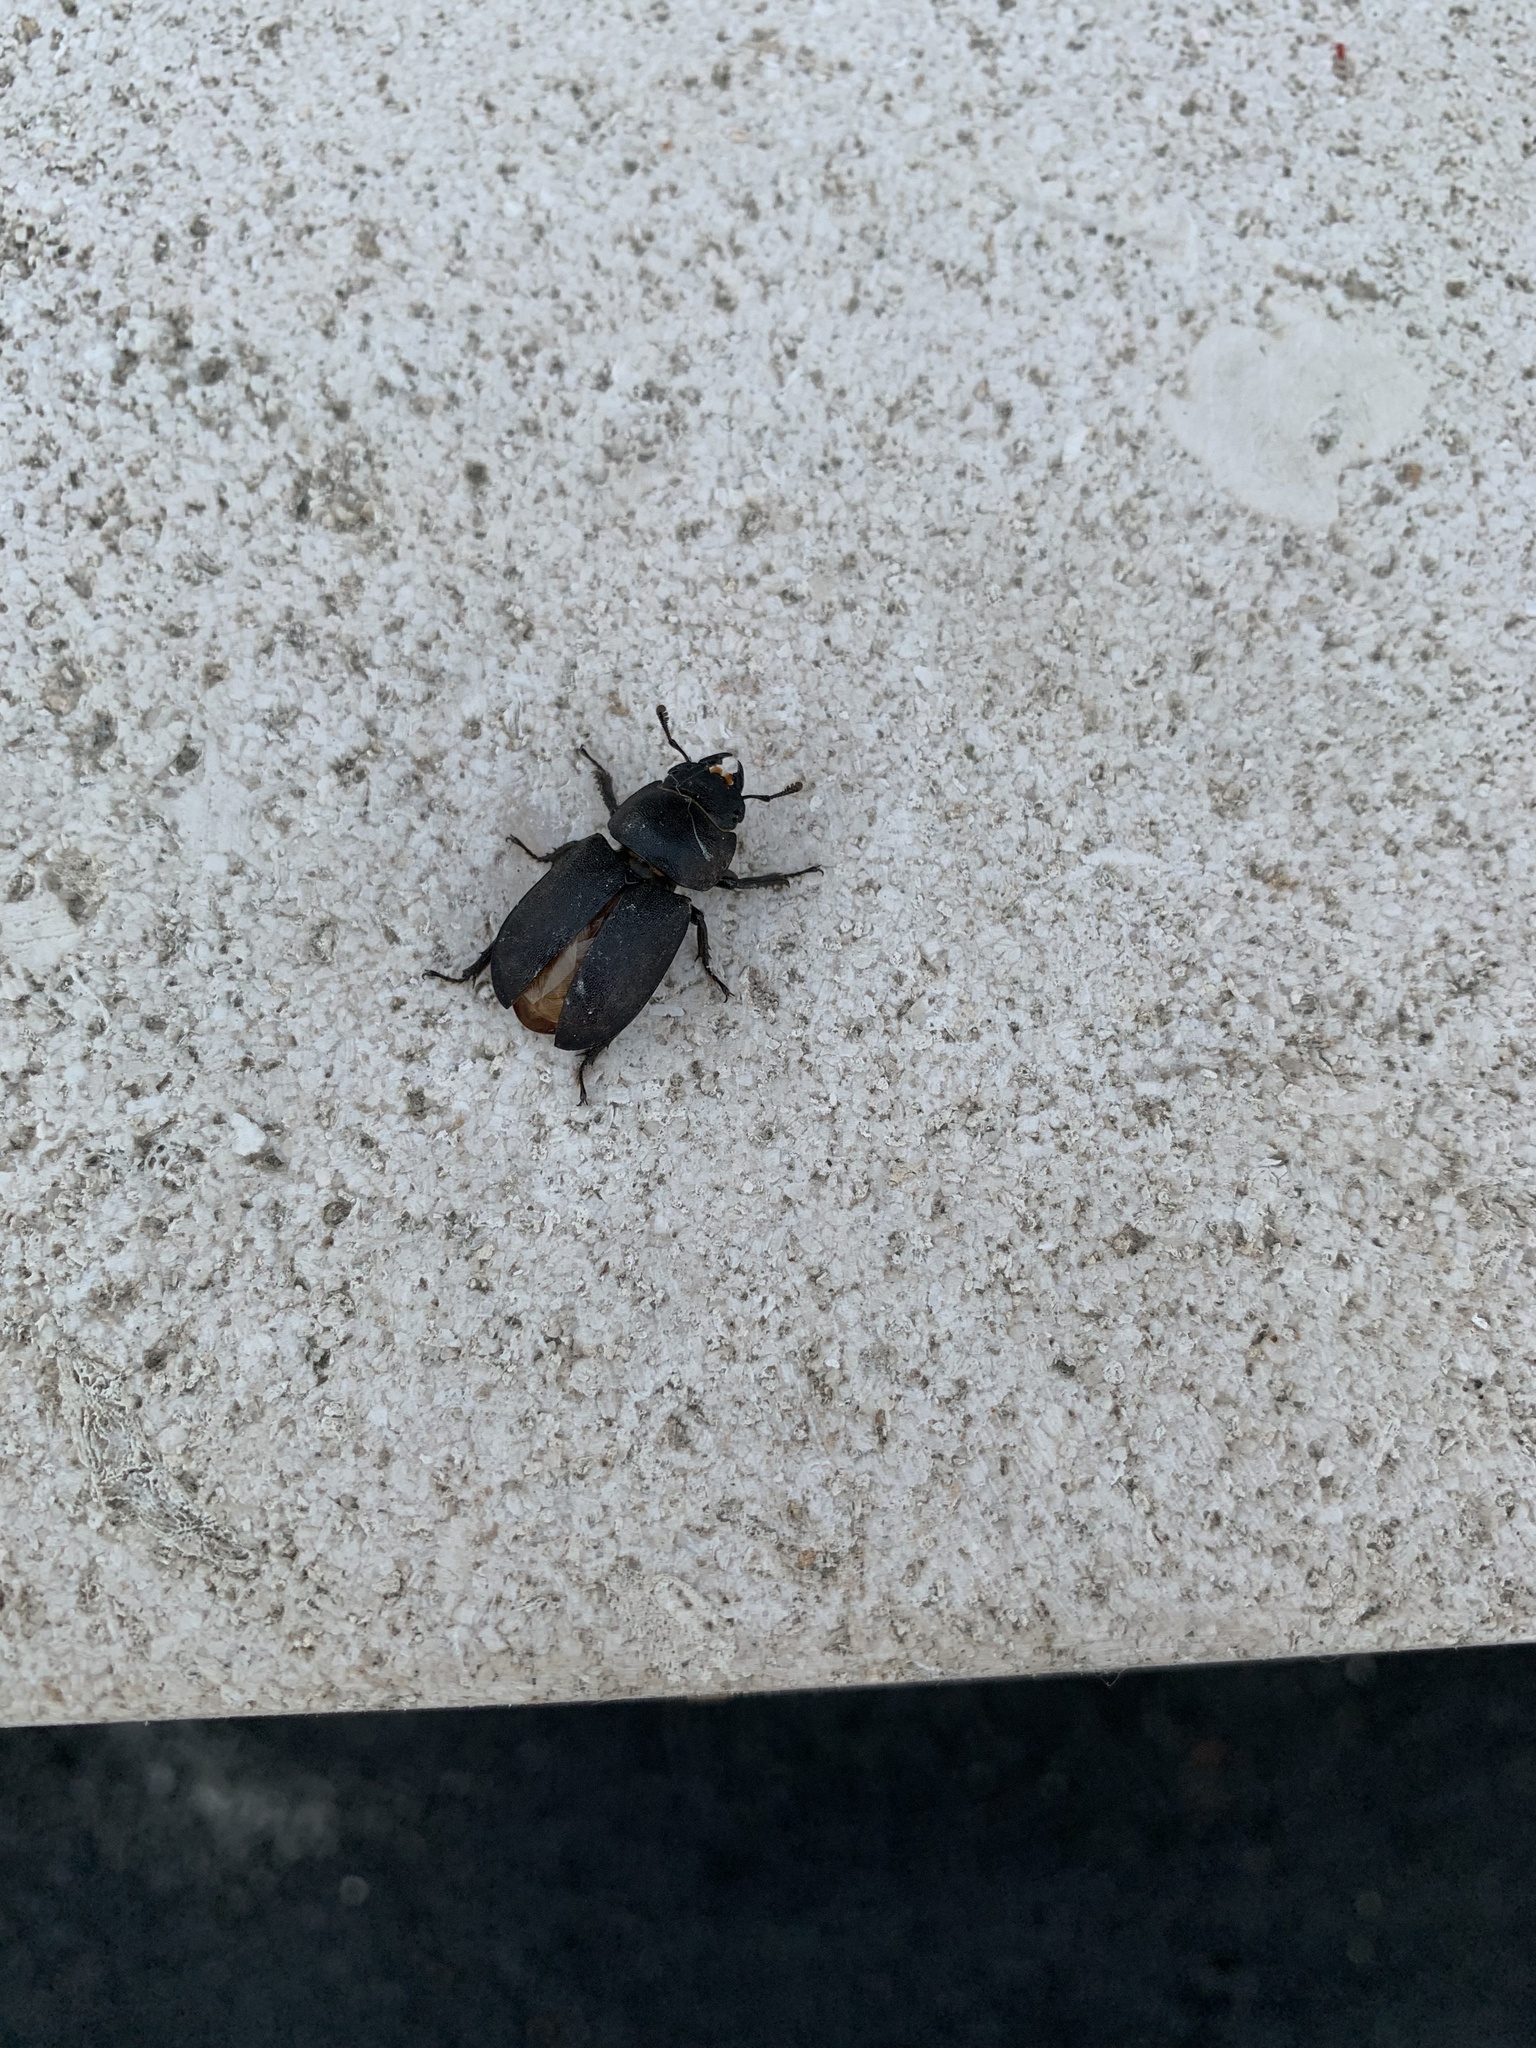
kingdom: Animalia
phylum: Arthropoda
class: Insecta
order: Coleoptera
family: Lucanidae
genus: Dorcus
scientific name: Dorcus parallelipipedus
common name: Lesser stag beetle
